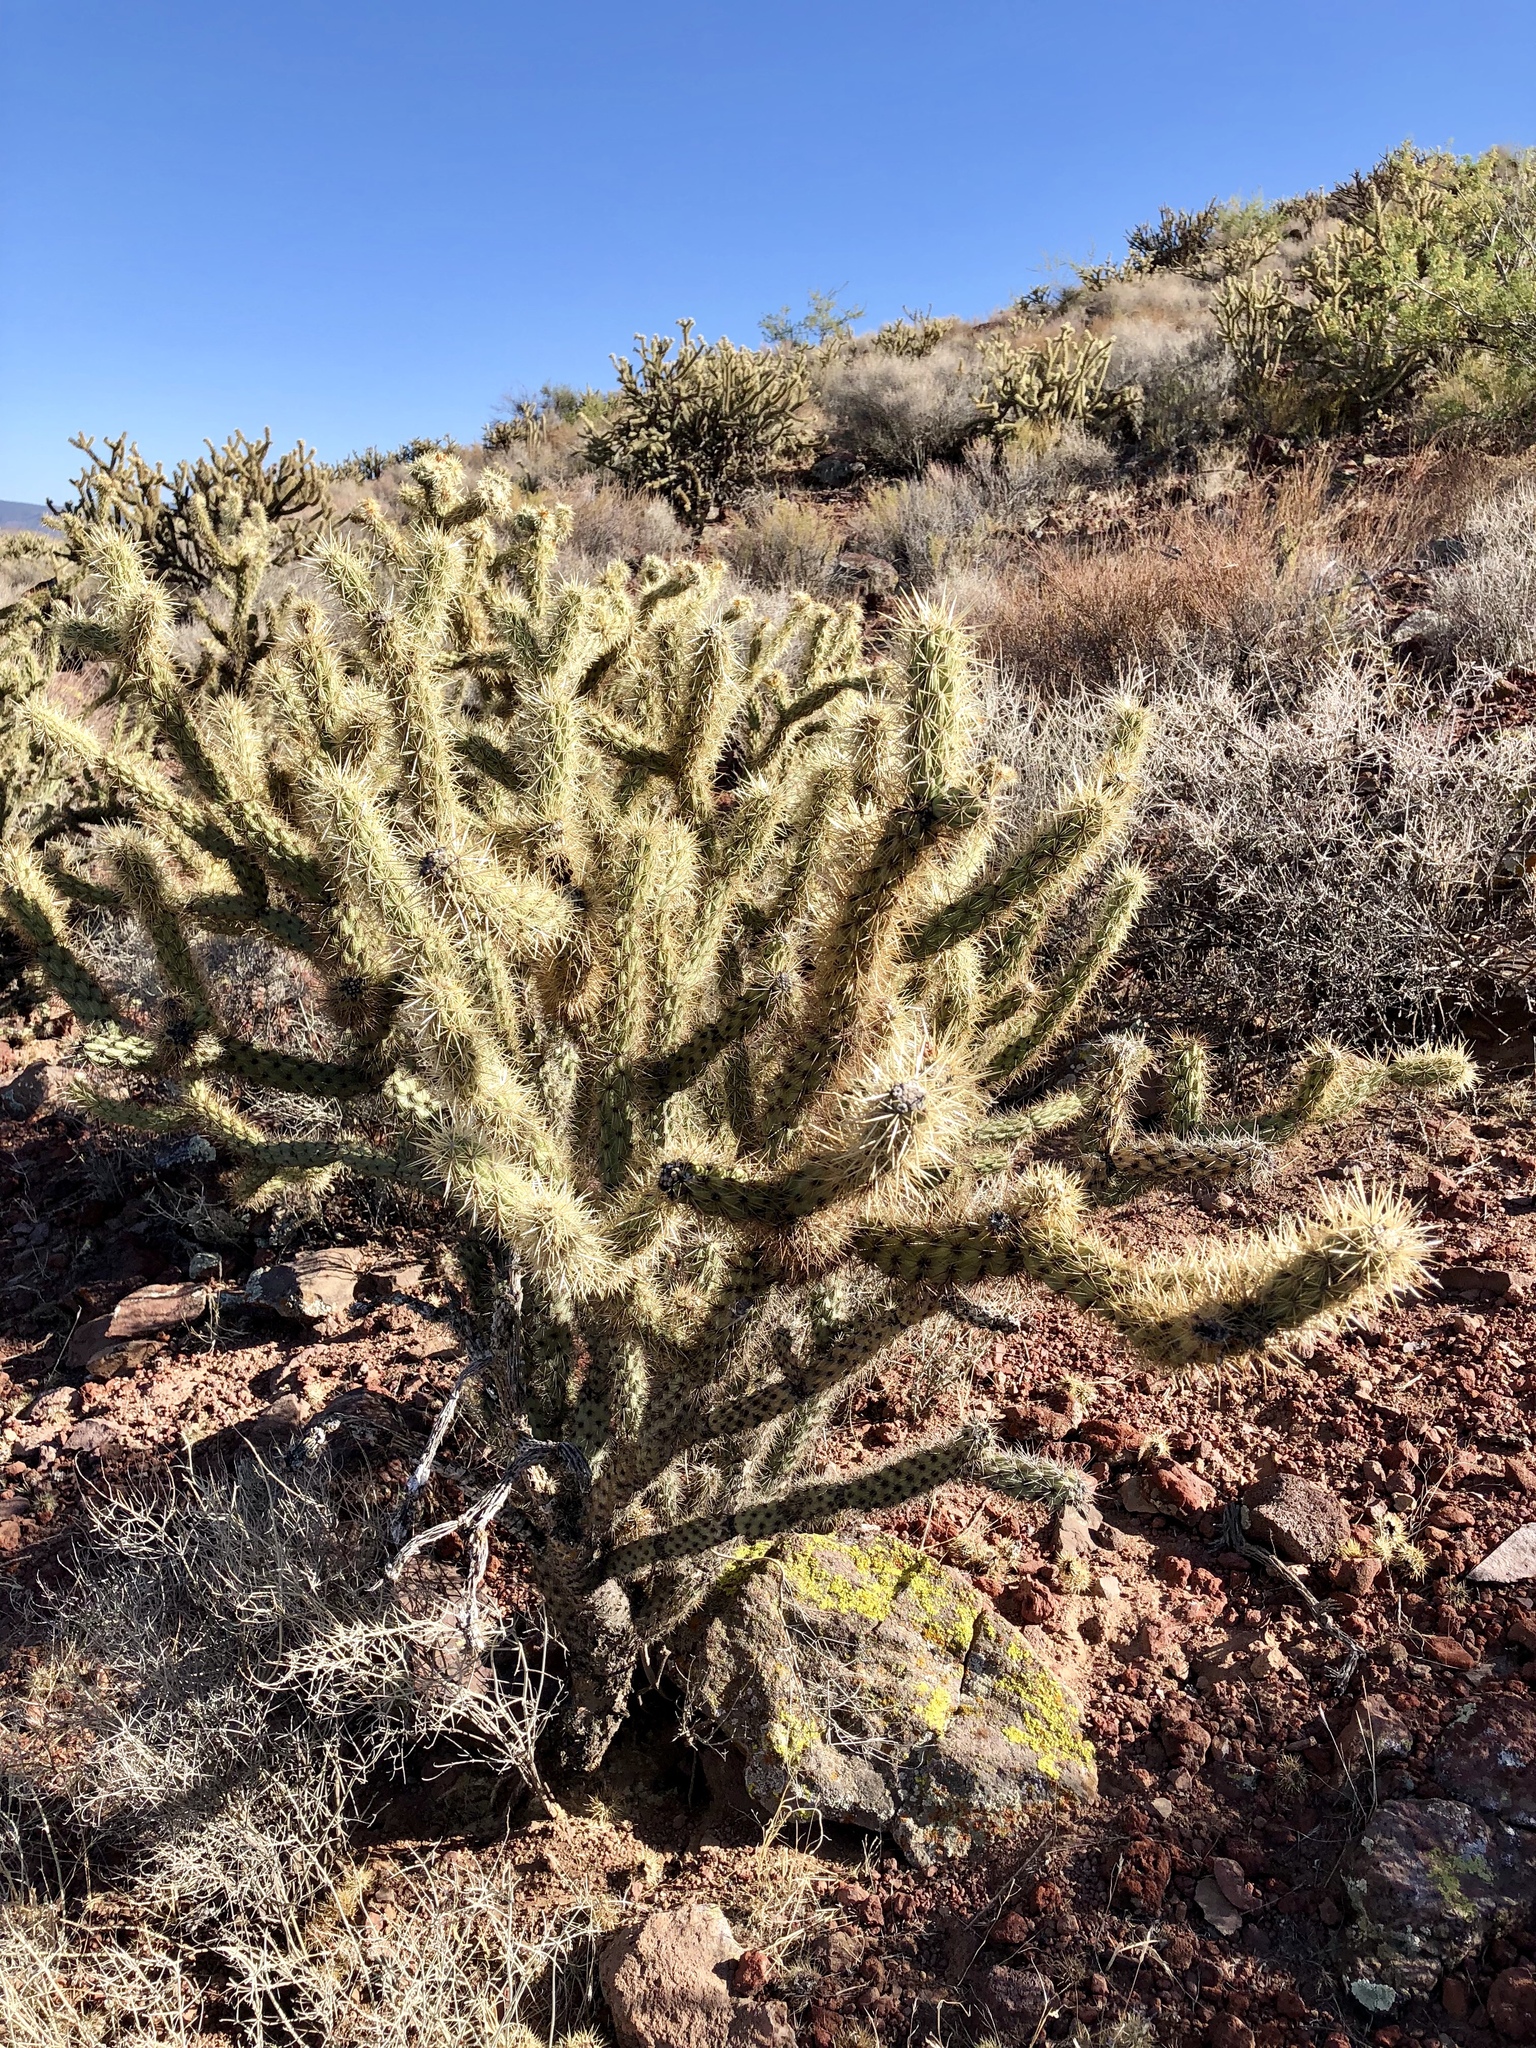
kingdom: Plantae
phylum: Tracheophyta
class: Magnoliopsida
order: Caryophyllales
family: Cactaceae
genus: Cylindropuntia
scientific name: Cylindropuntia acanthocarpa
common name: Buckhorn cholla
